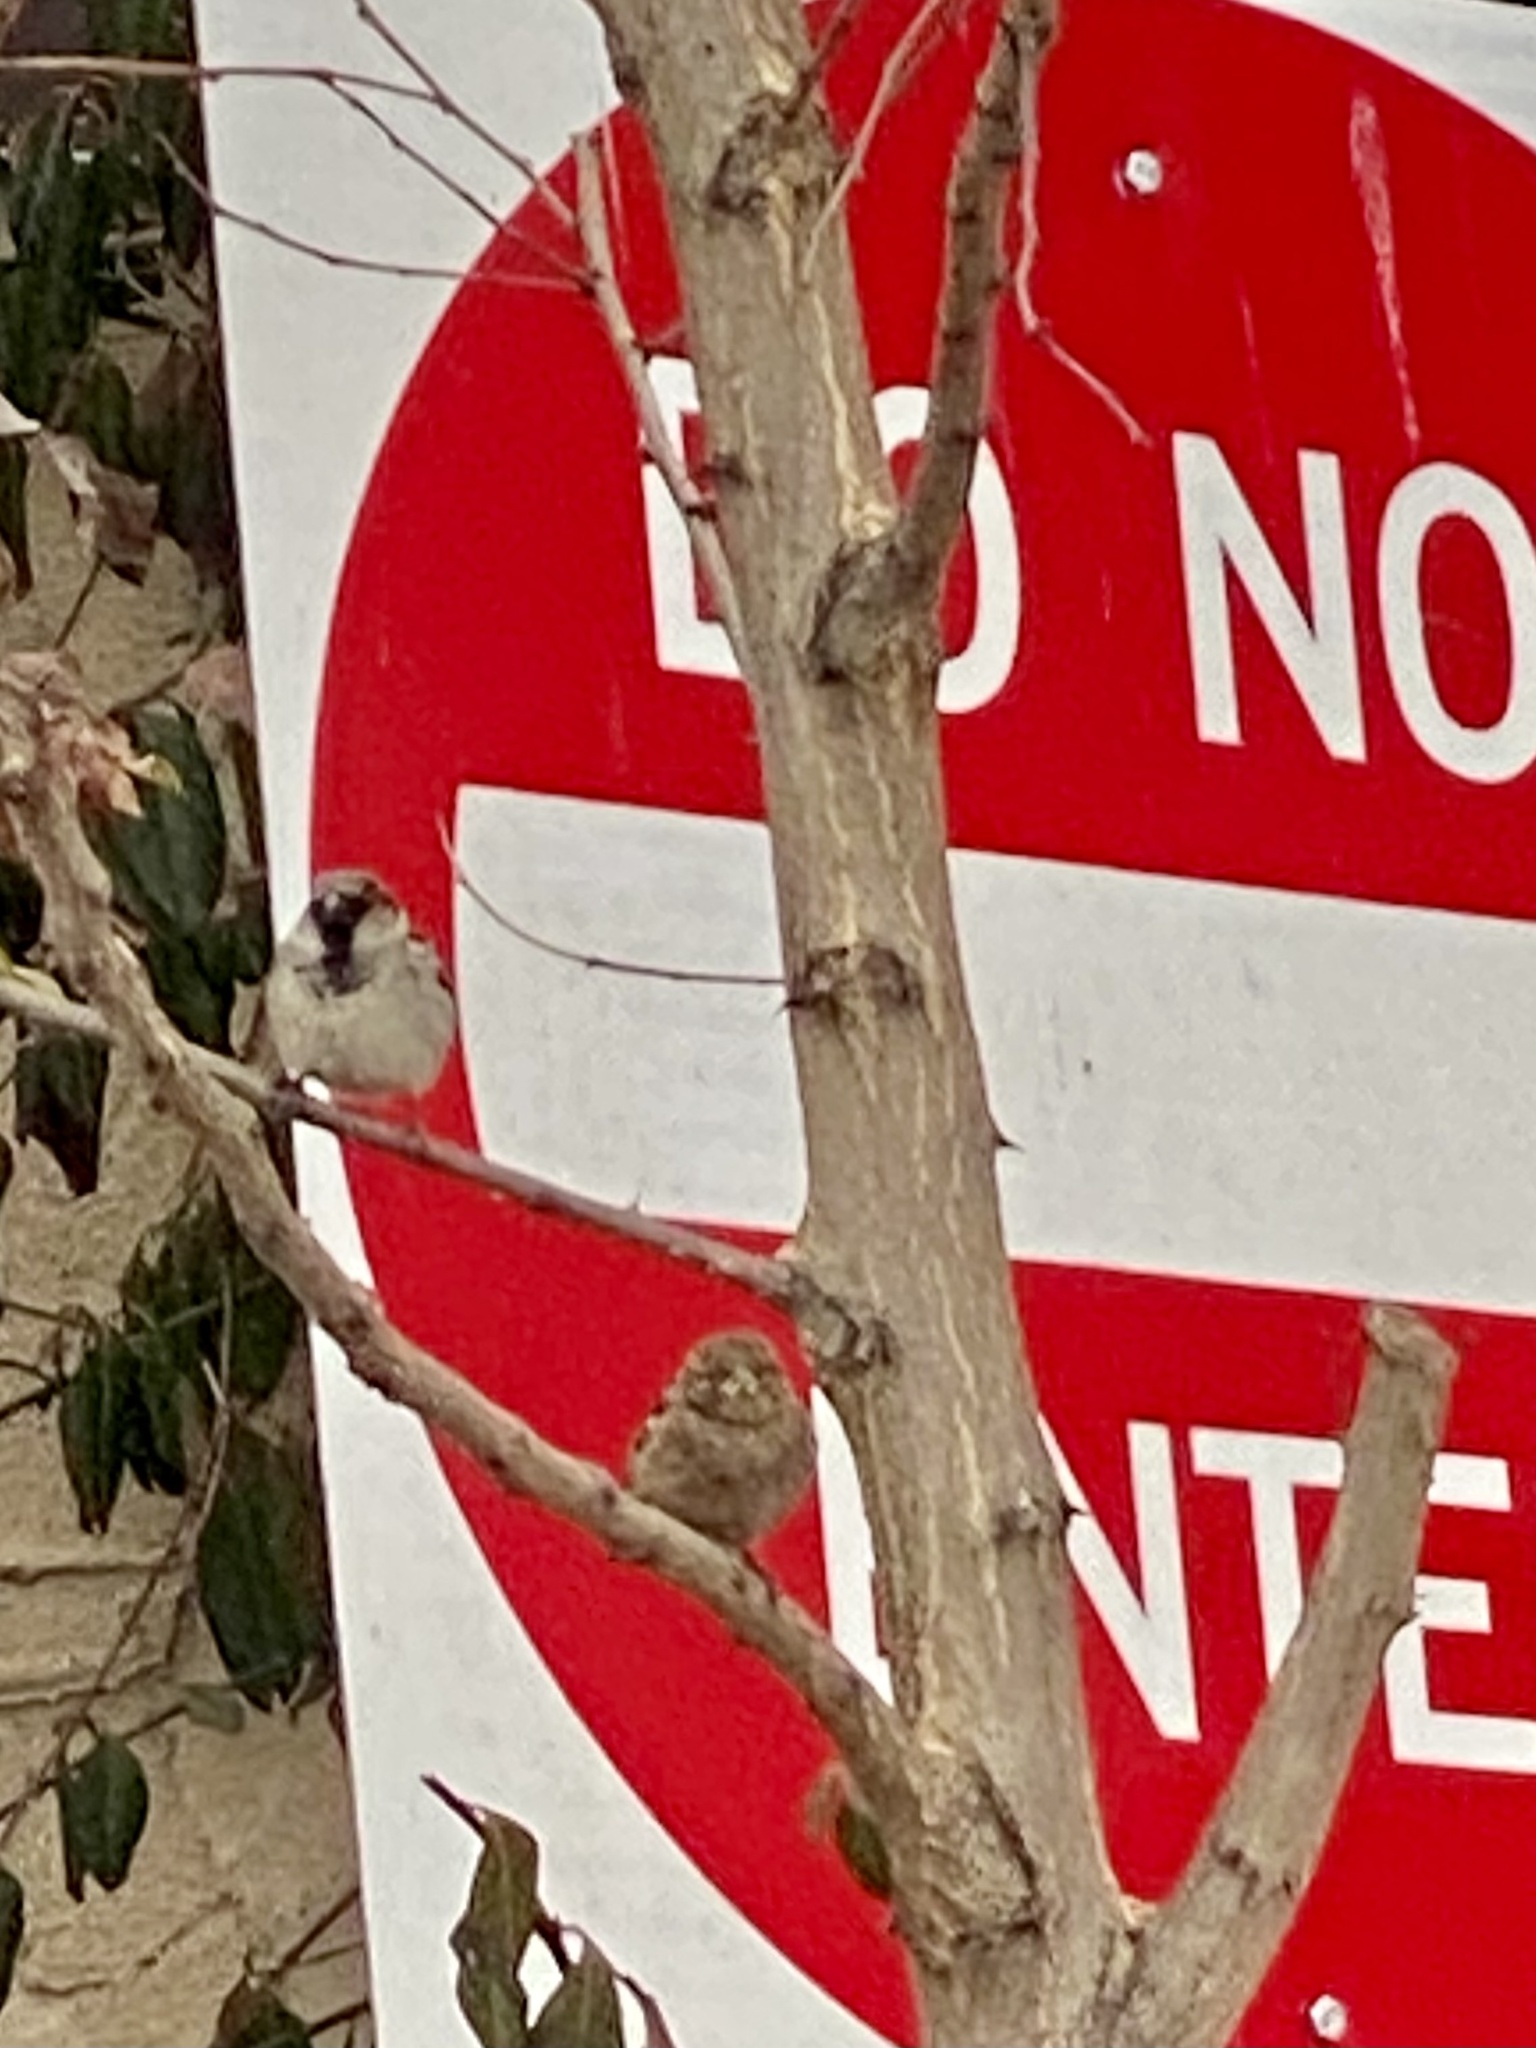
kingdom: Animalia
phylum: Chordata
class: Aves
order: Passeriformes
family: Passeridae
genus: Passer
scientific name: Passer domesticus
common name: House sparrow
